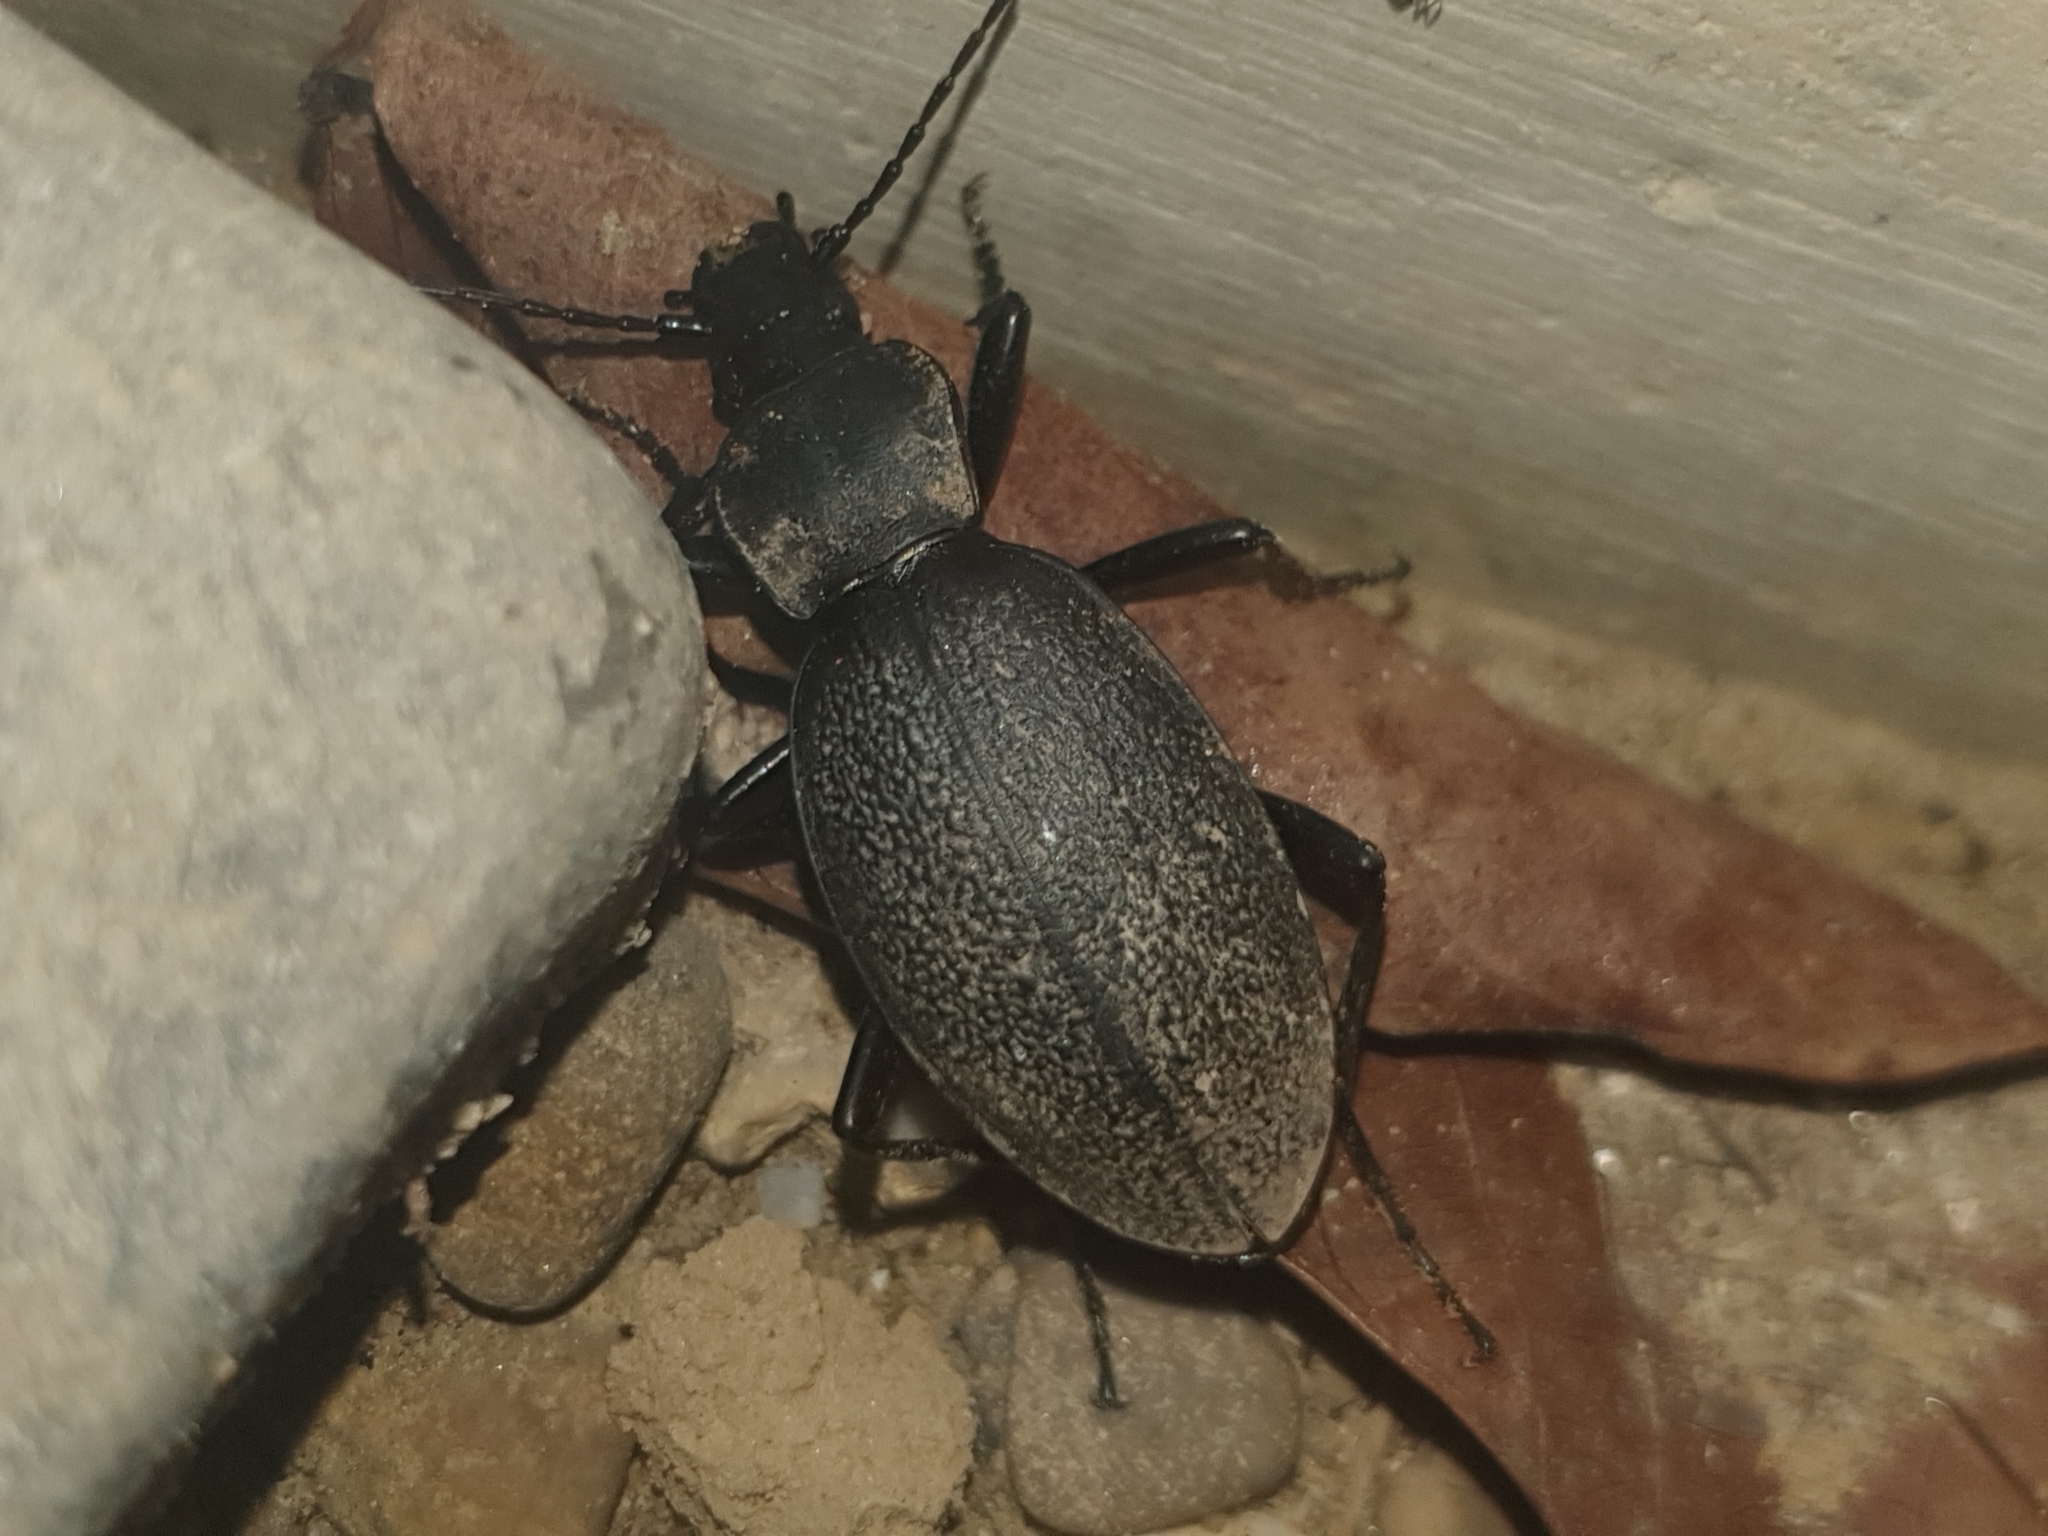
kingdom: Animalia
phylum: Arthropoda
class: Insecta
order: Coleoptera
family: Carabidae
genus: Carabus
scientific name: Carabus coriaceus
